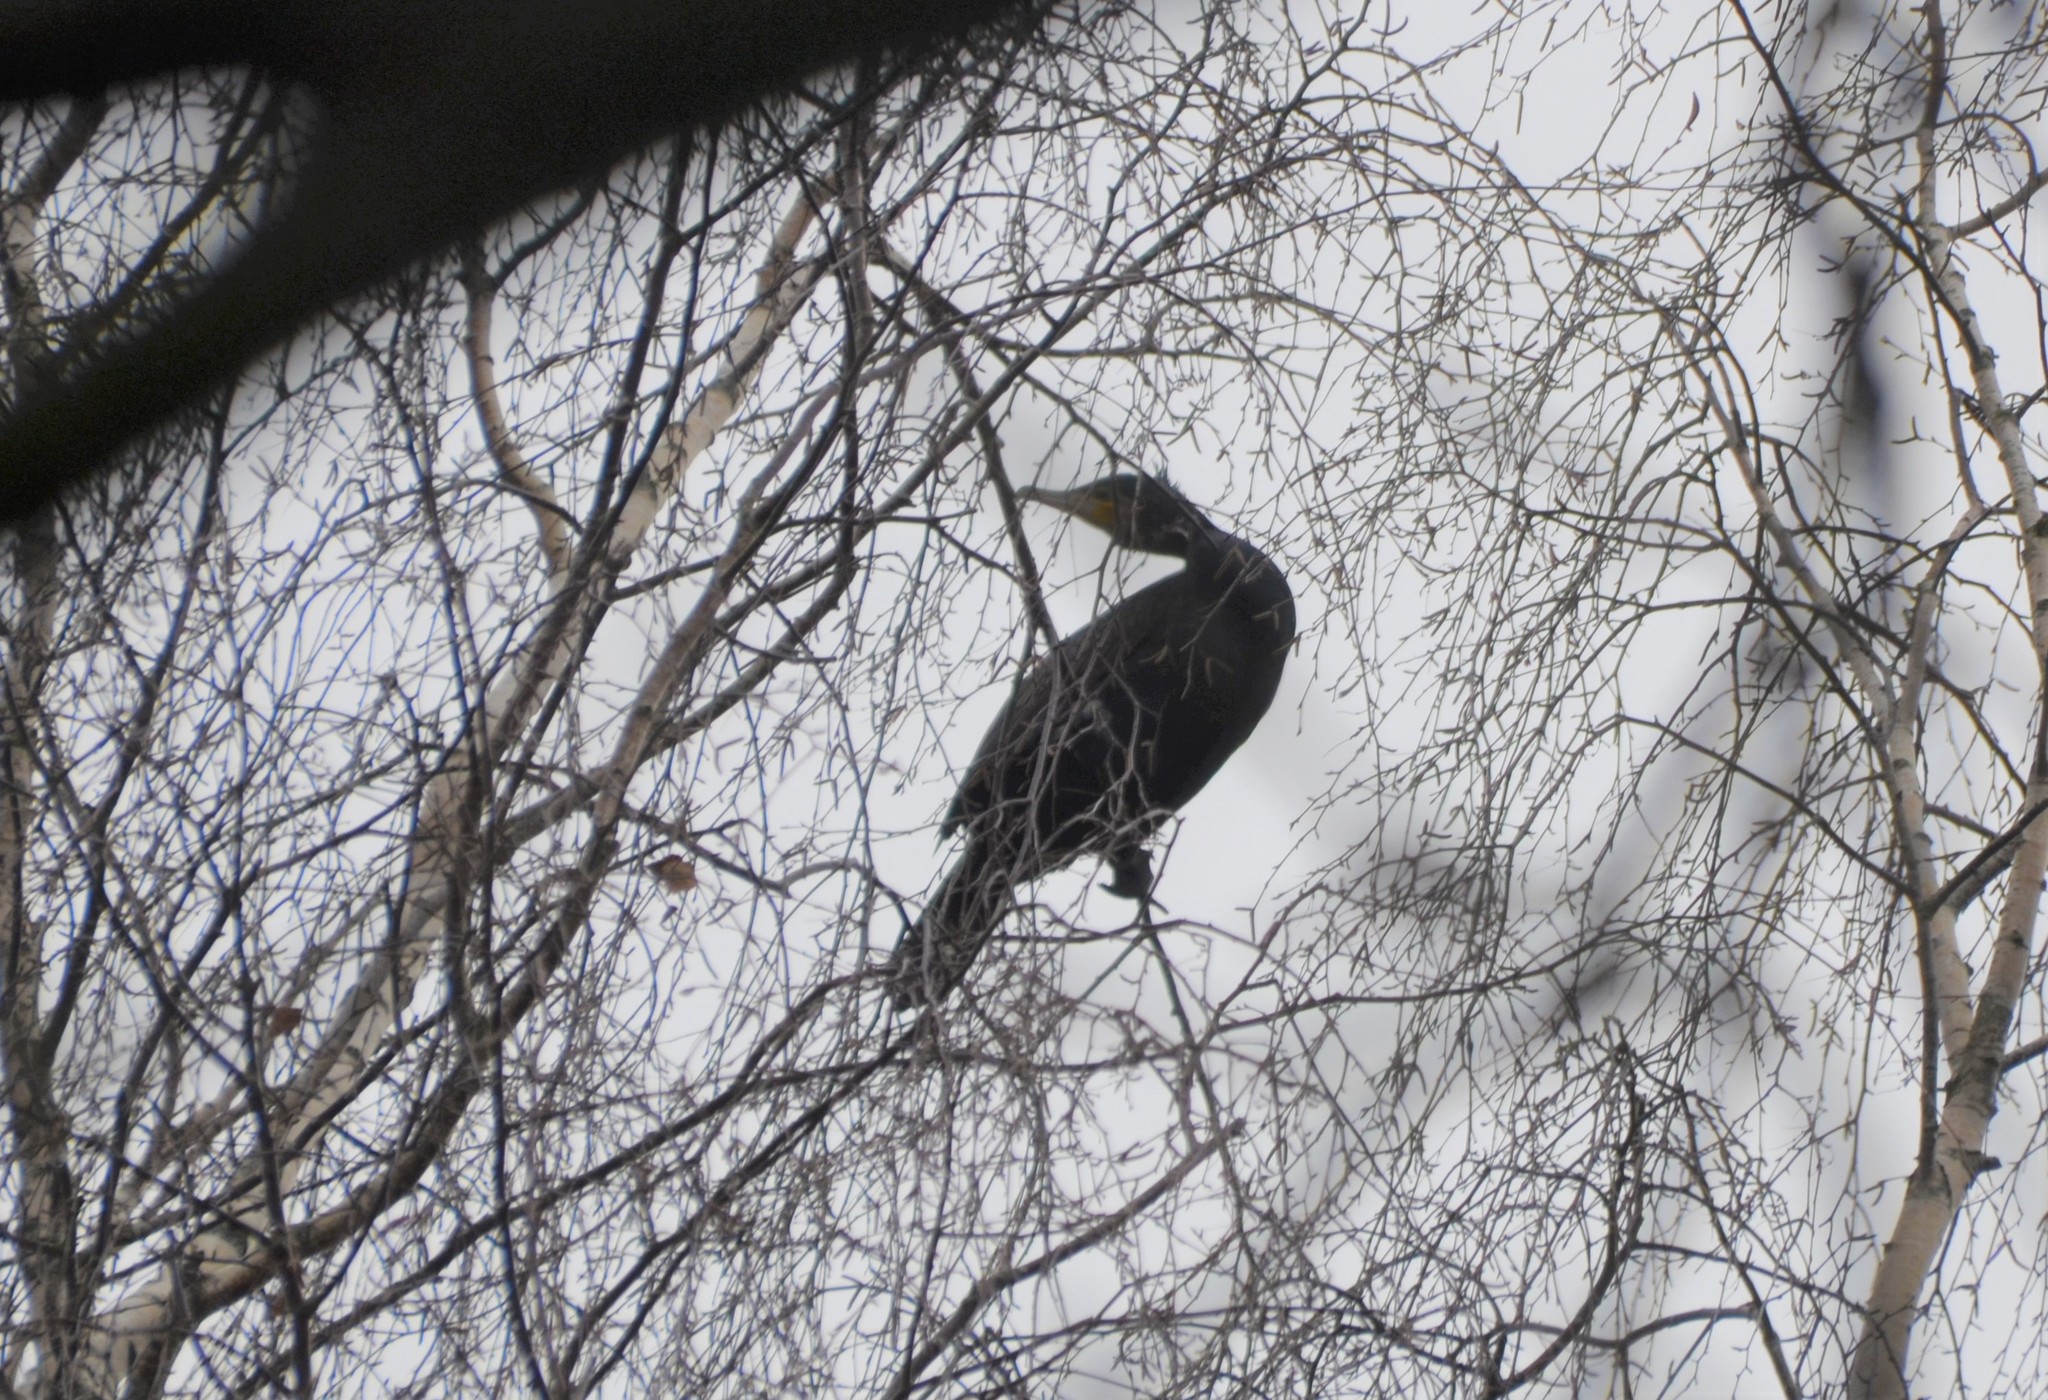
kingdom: Animalia
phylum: Chordata
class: Aves
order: Suliformes
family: Phalacrocoracidae
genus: Phalacrocorax
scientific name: Phalacrocorax carbo
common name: Great cormorant
